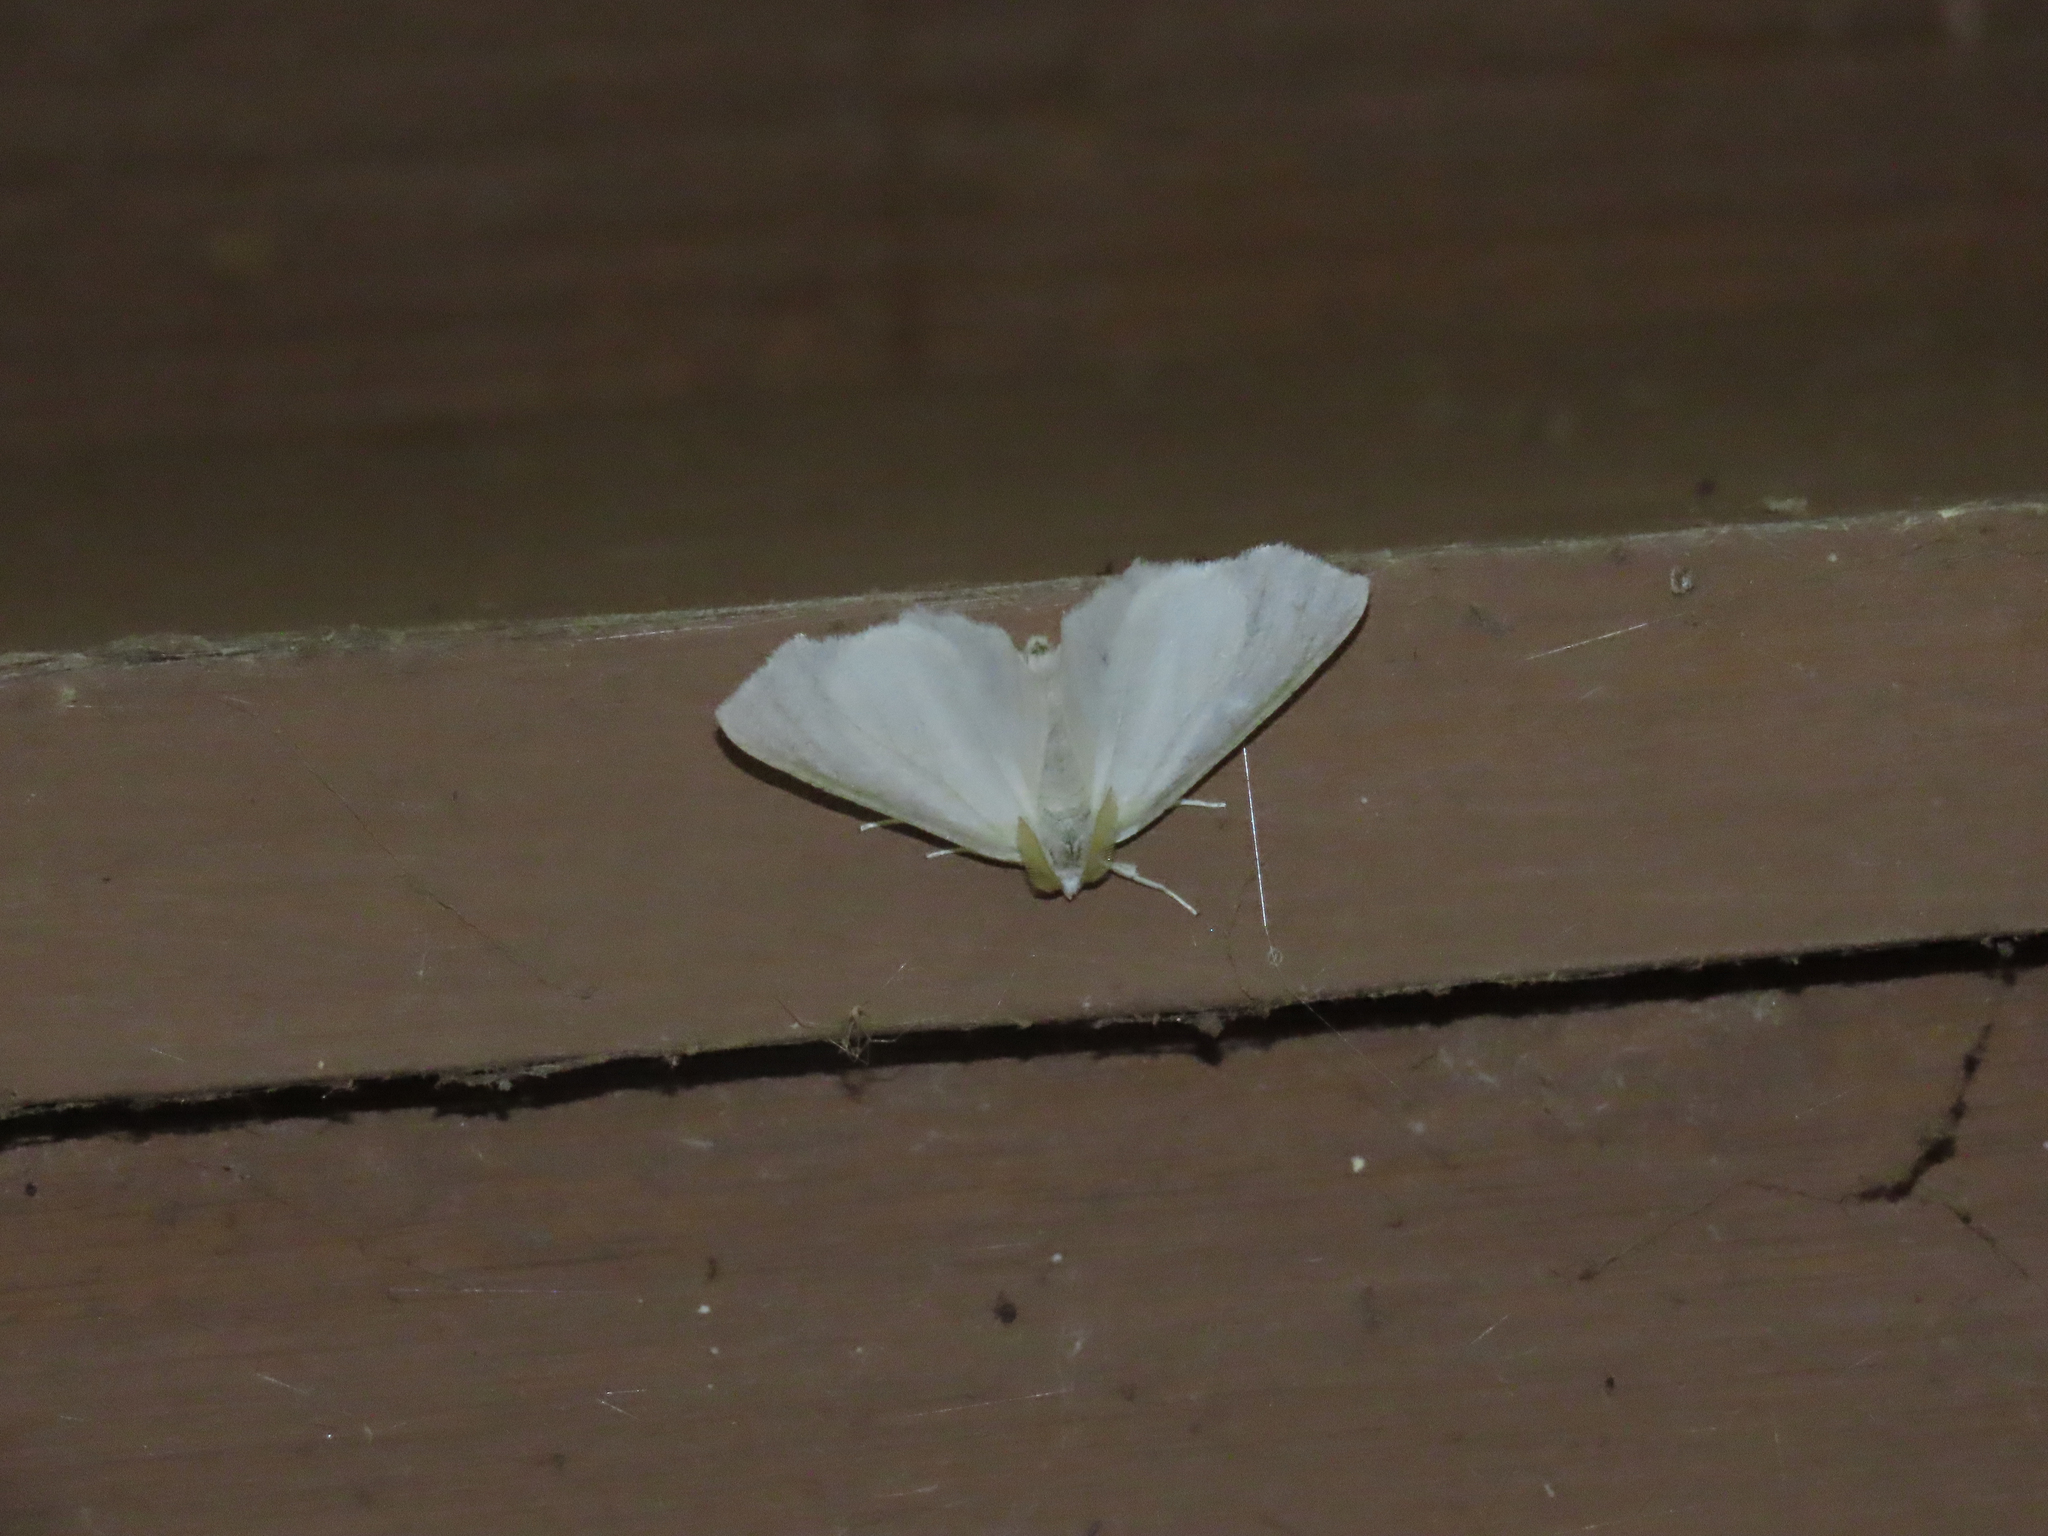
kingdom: Animalia
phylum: Arthropoda
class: Insecta
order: Lepidoptera
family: Geometridae
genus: Ennomos
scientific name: Ennomos subsignaria
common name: Elm spanworm
